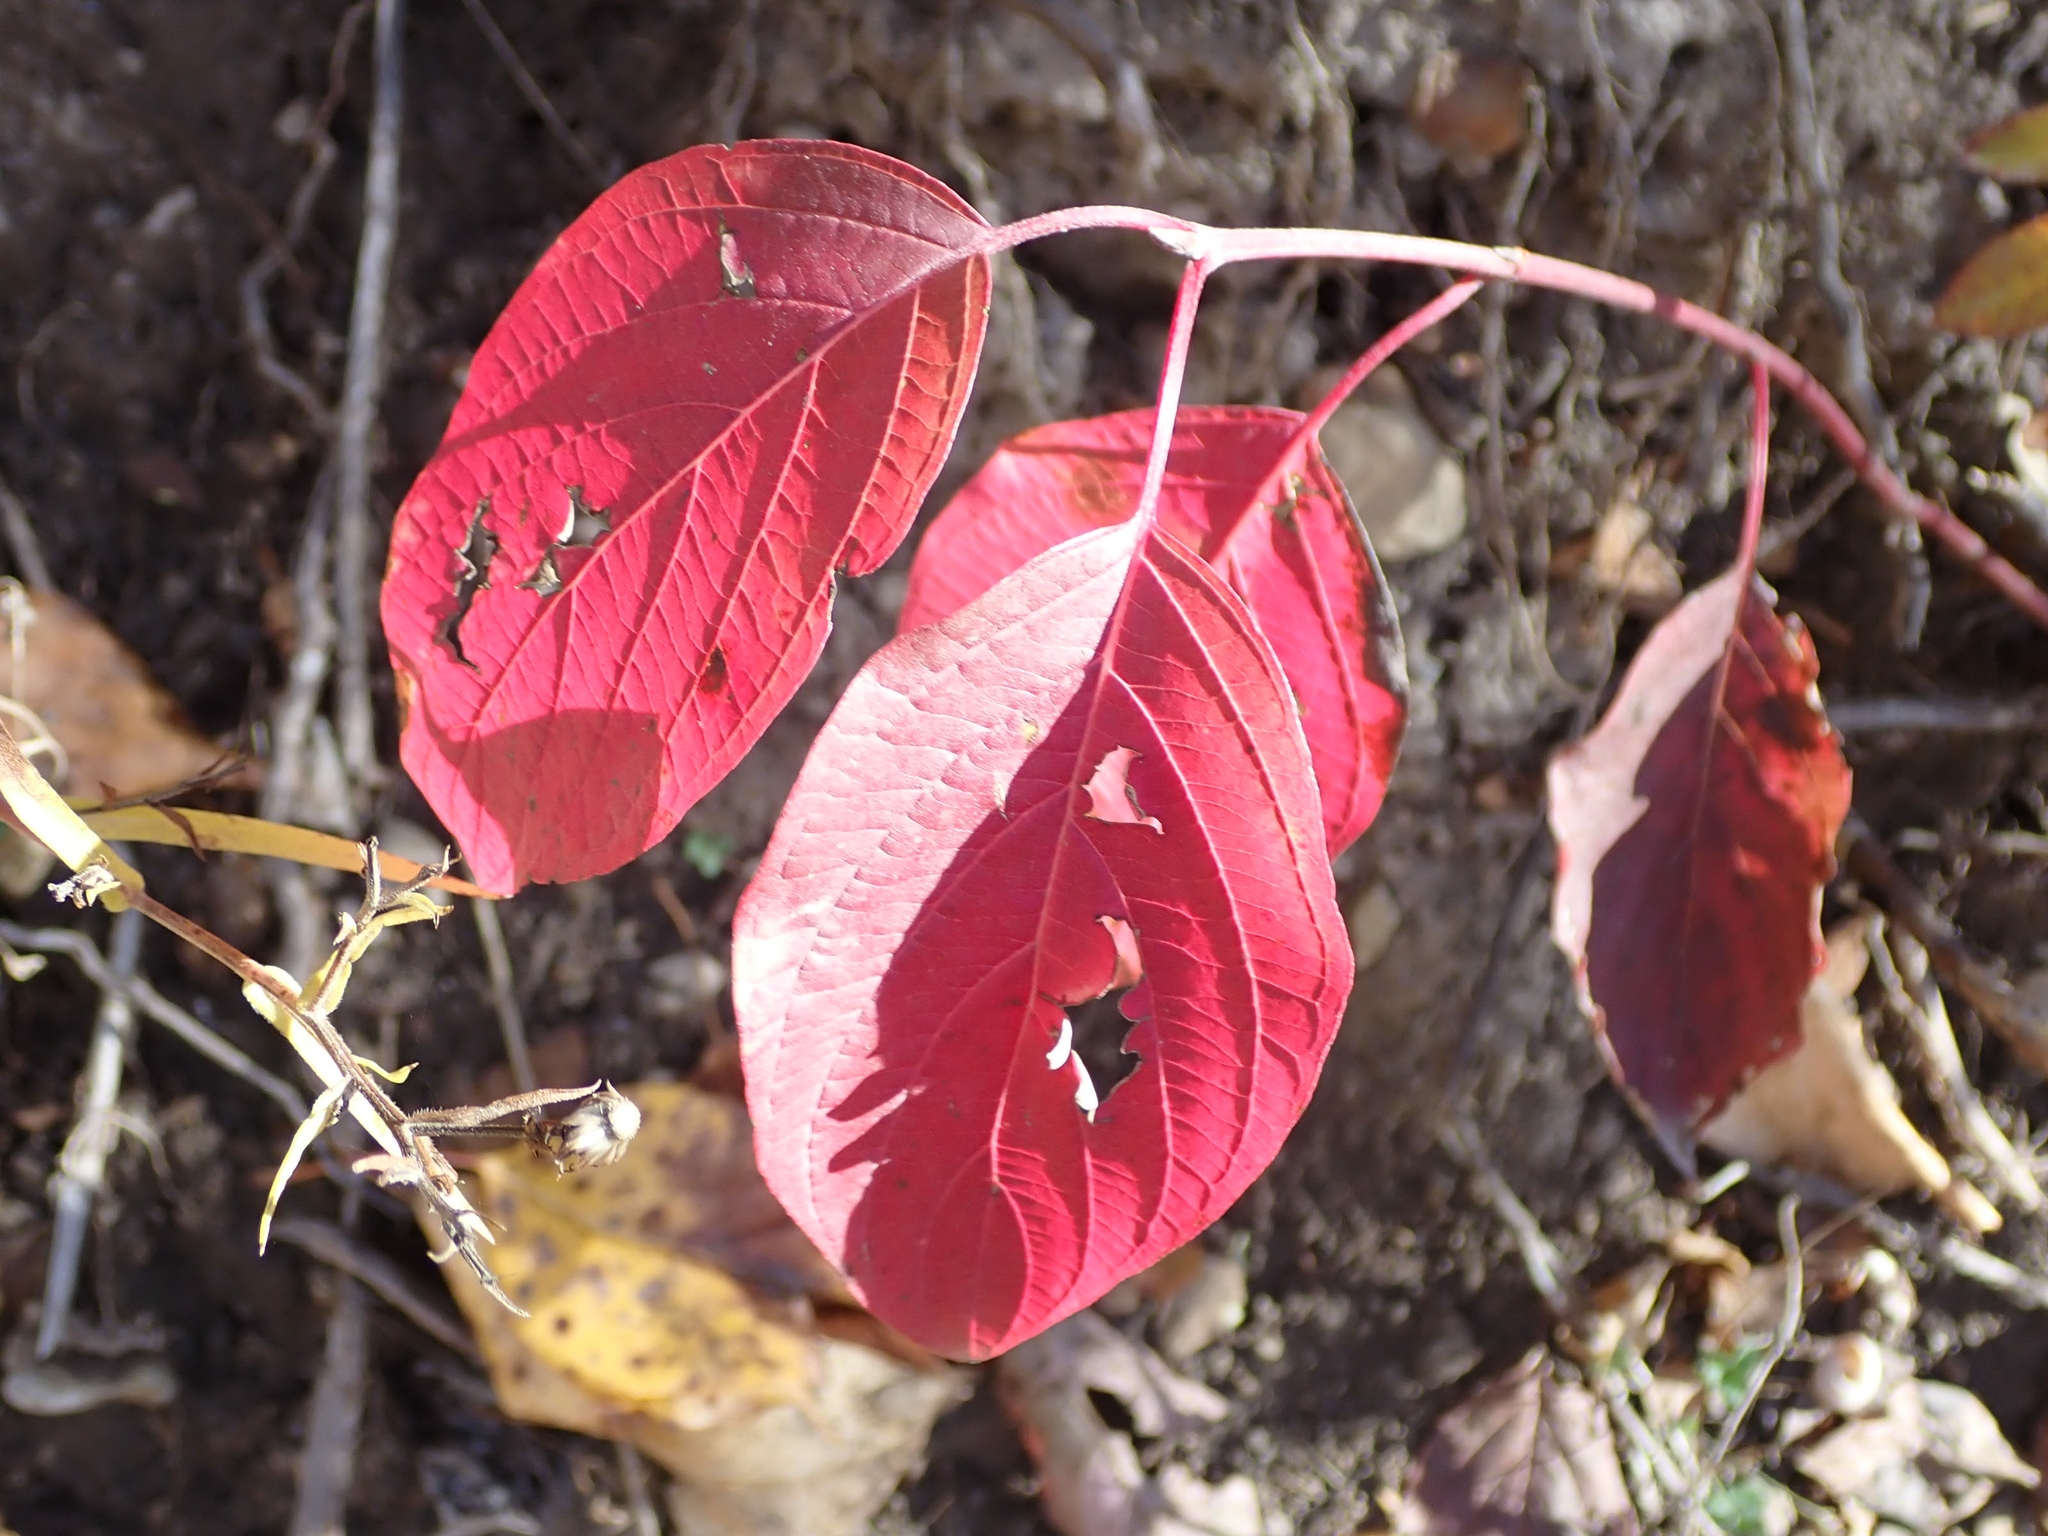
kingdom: Plantae
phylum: Tracheophyta
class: Magnoliopsida
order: Cornales
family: Cornaceae
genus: Cornus
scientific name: Cornus sericea
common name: Red-osier dogwood
